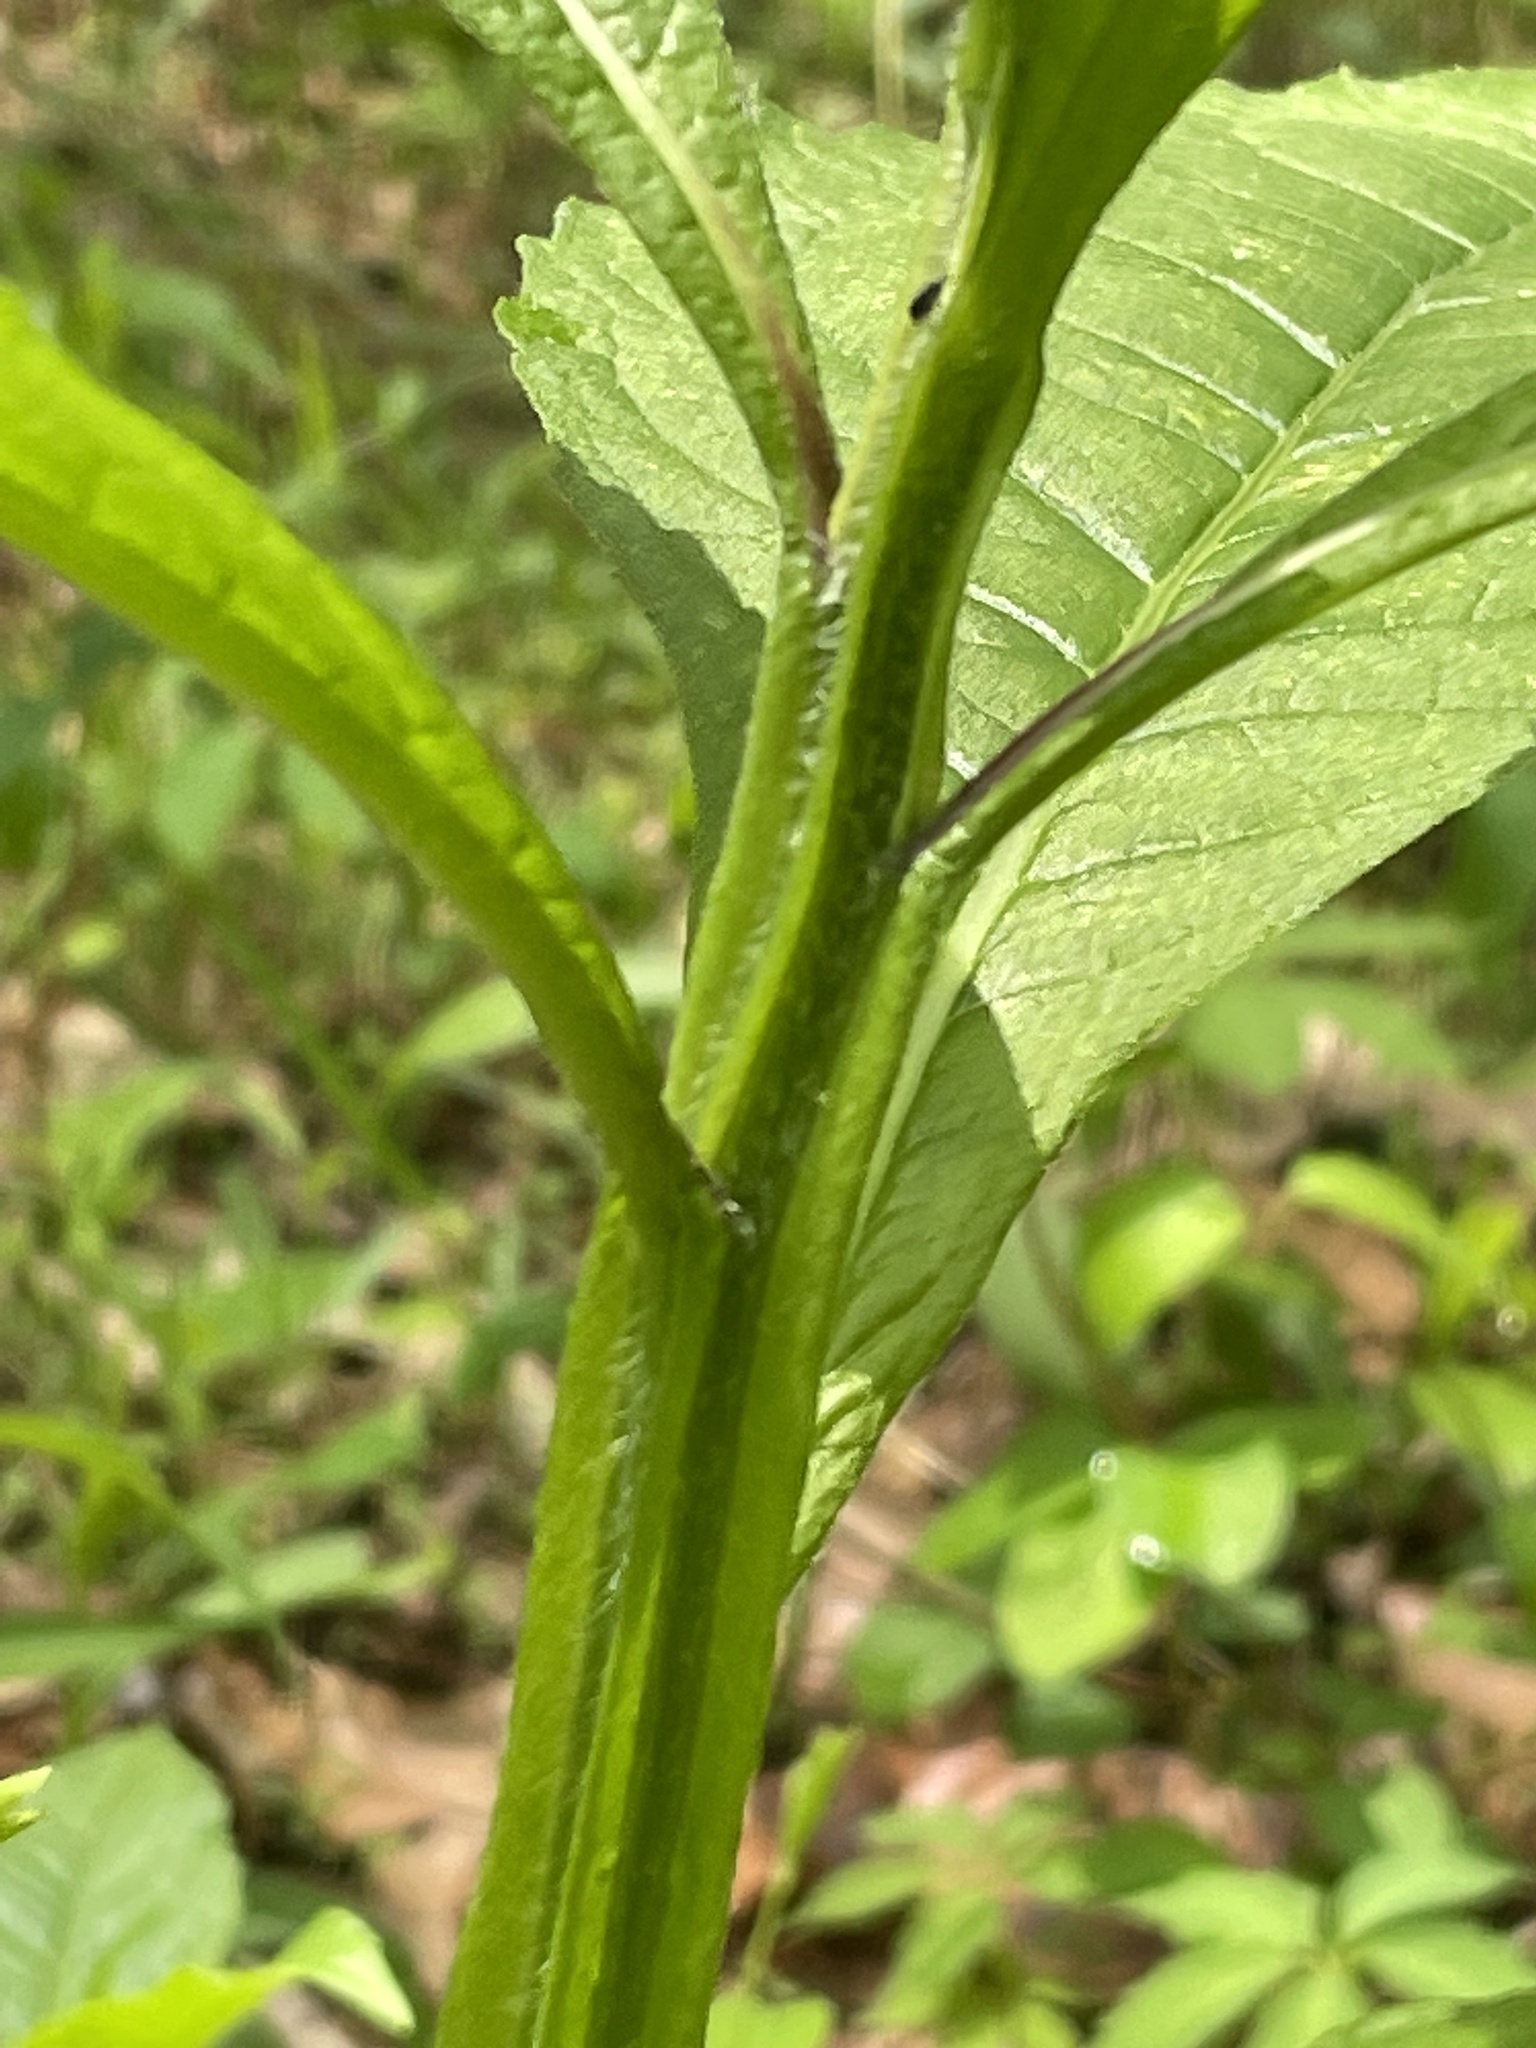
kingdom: Plantae
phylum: Tracheophyta
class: Magnoliopsida
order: Asterales
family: Asteraceae
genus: Verbesina
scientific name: Verbesina alternifolia
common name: Wingstem
